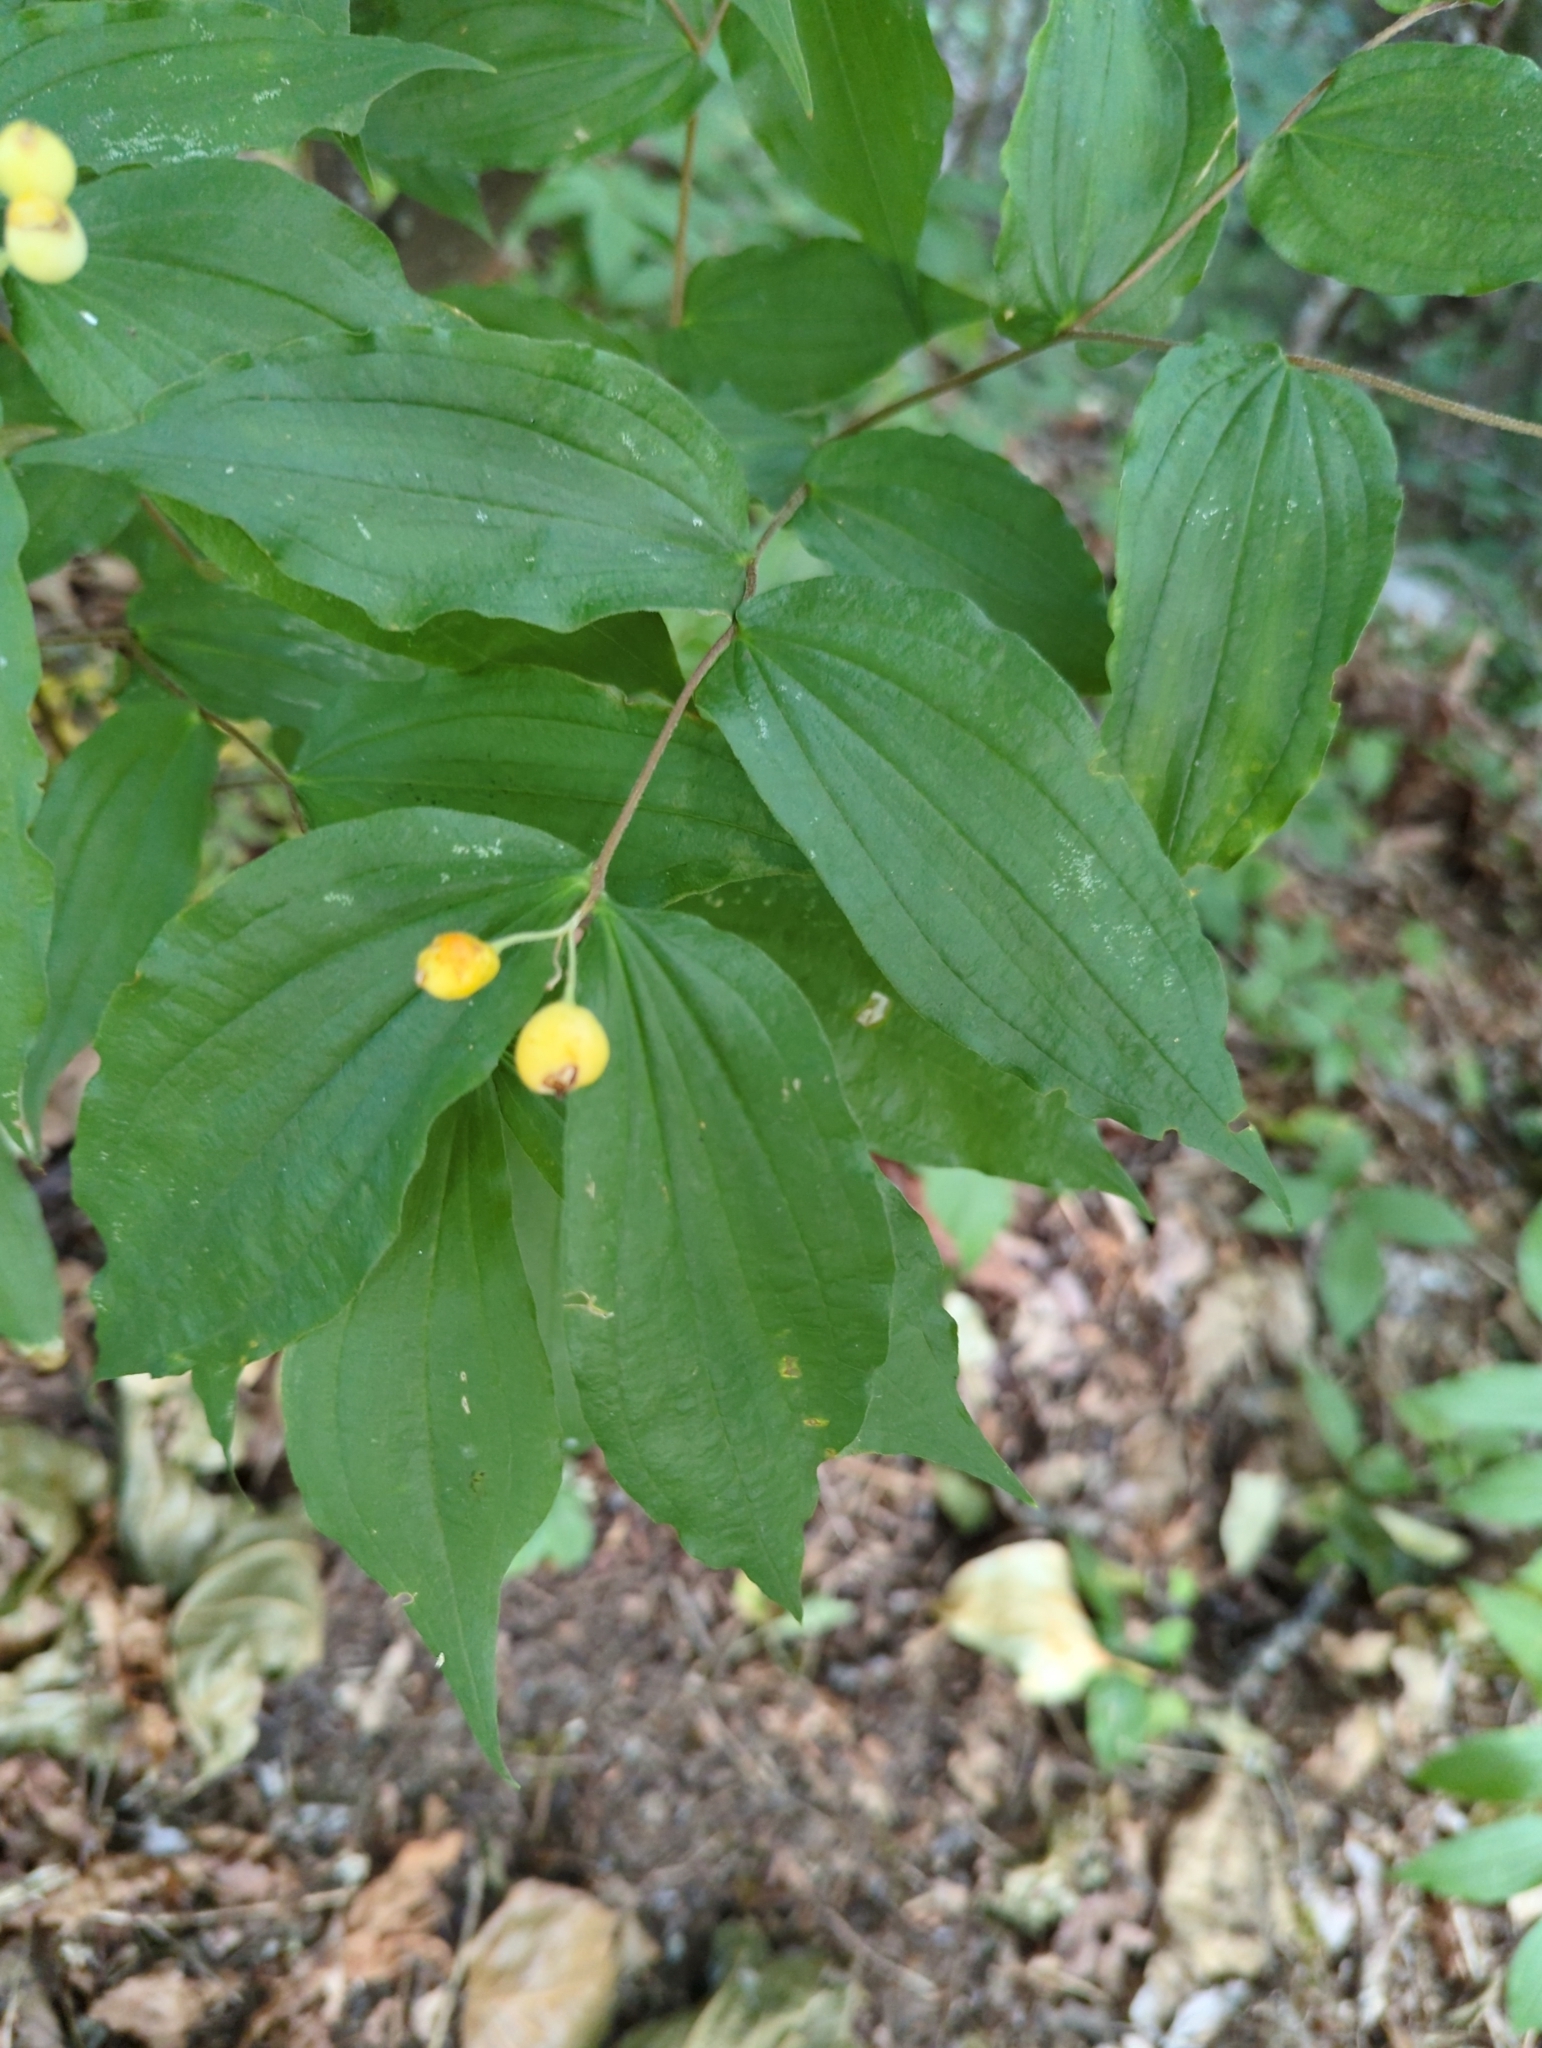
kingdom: Plantae
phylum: Tracheophyta
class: Liliopsida
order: Liliales
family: Liliaceae
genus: Prosartes
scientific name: Prosartes hookeri
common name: Fairy-bells
